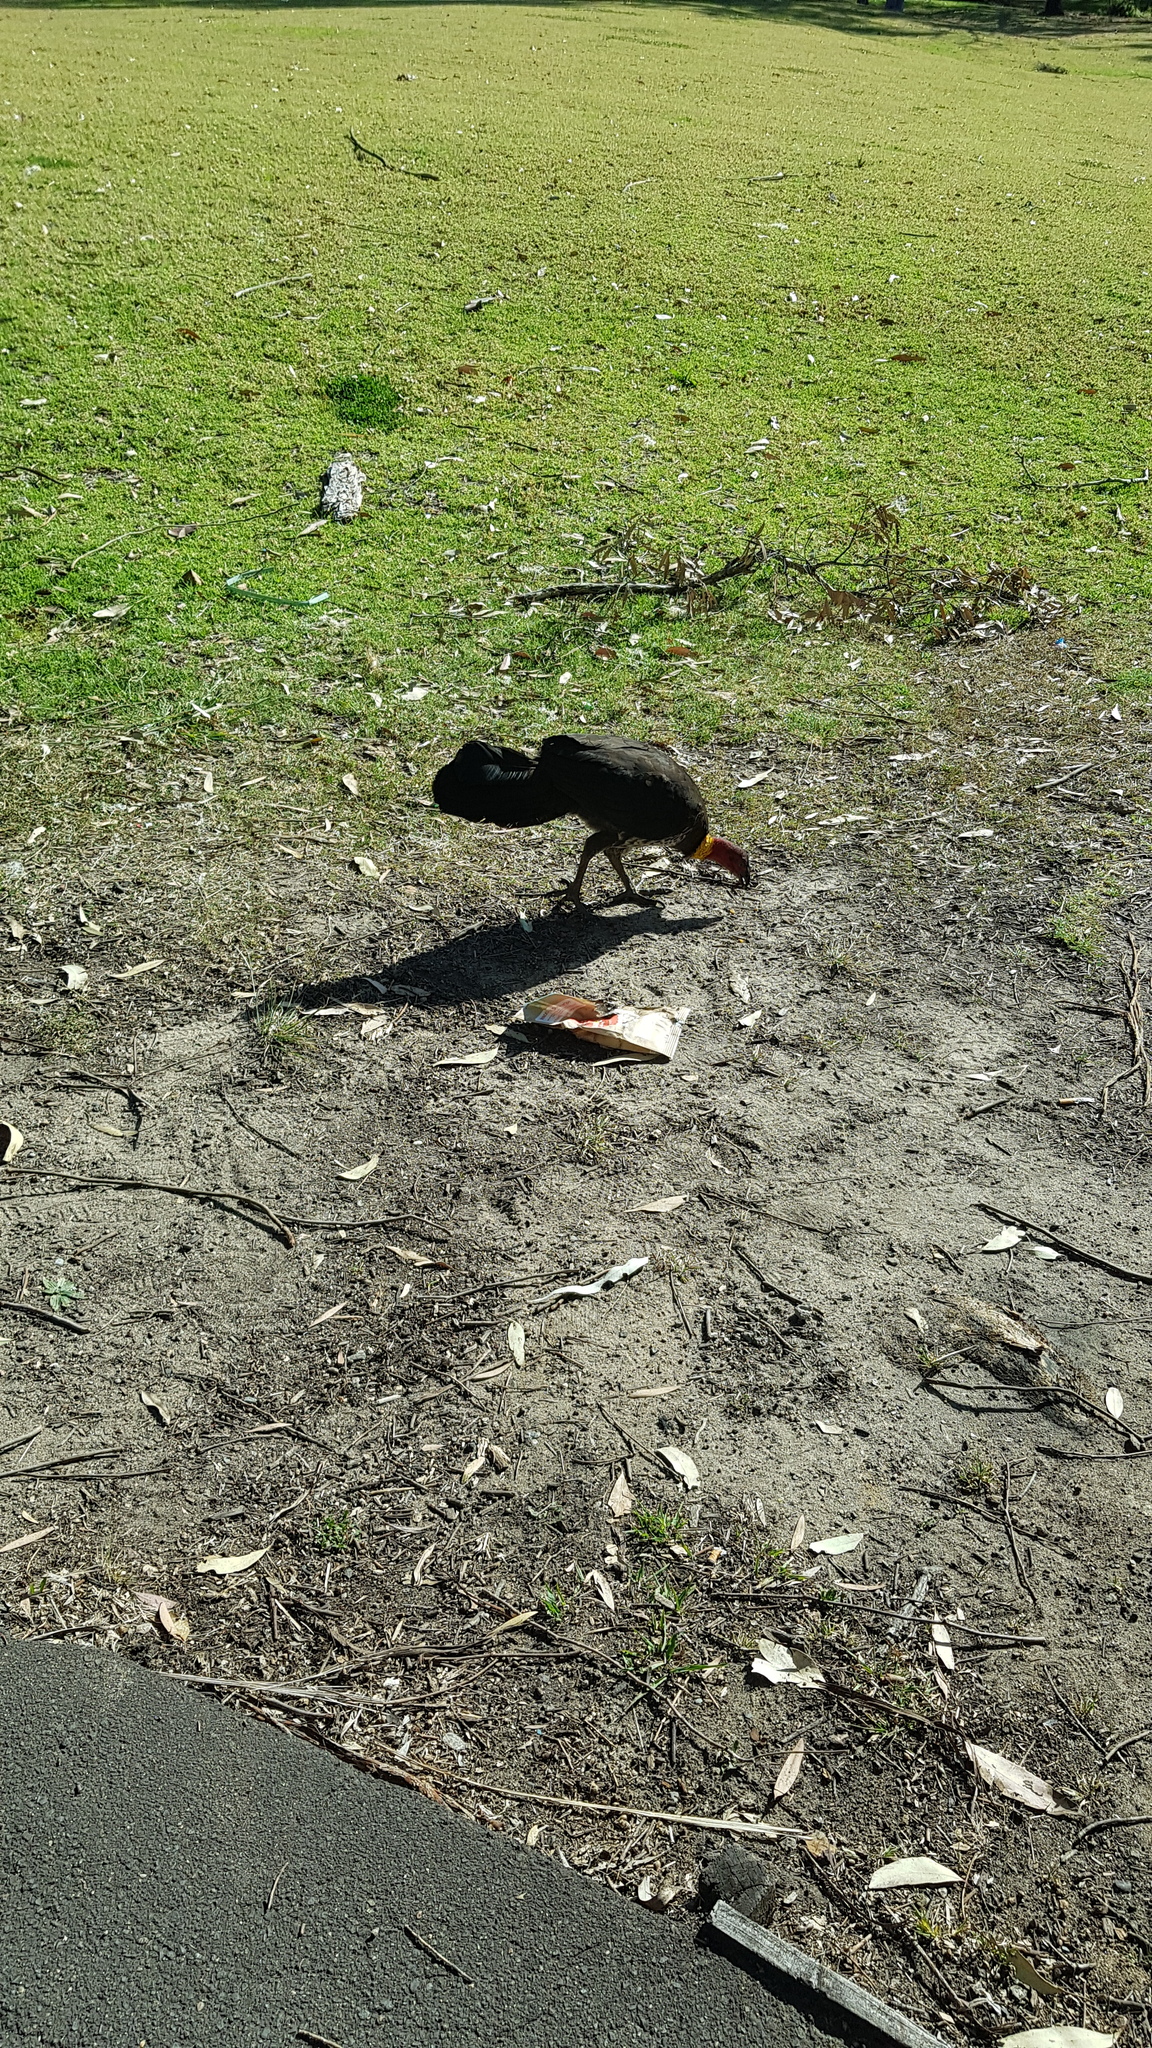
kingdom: Animalia
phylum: Chordata
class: Aves
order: Galliformes
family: Megapodiidae
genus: Alectura
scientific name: Alectura lathami
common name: Australian brushturkey
